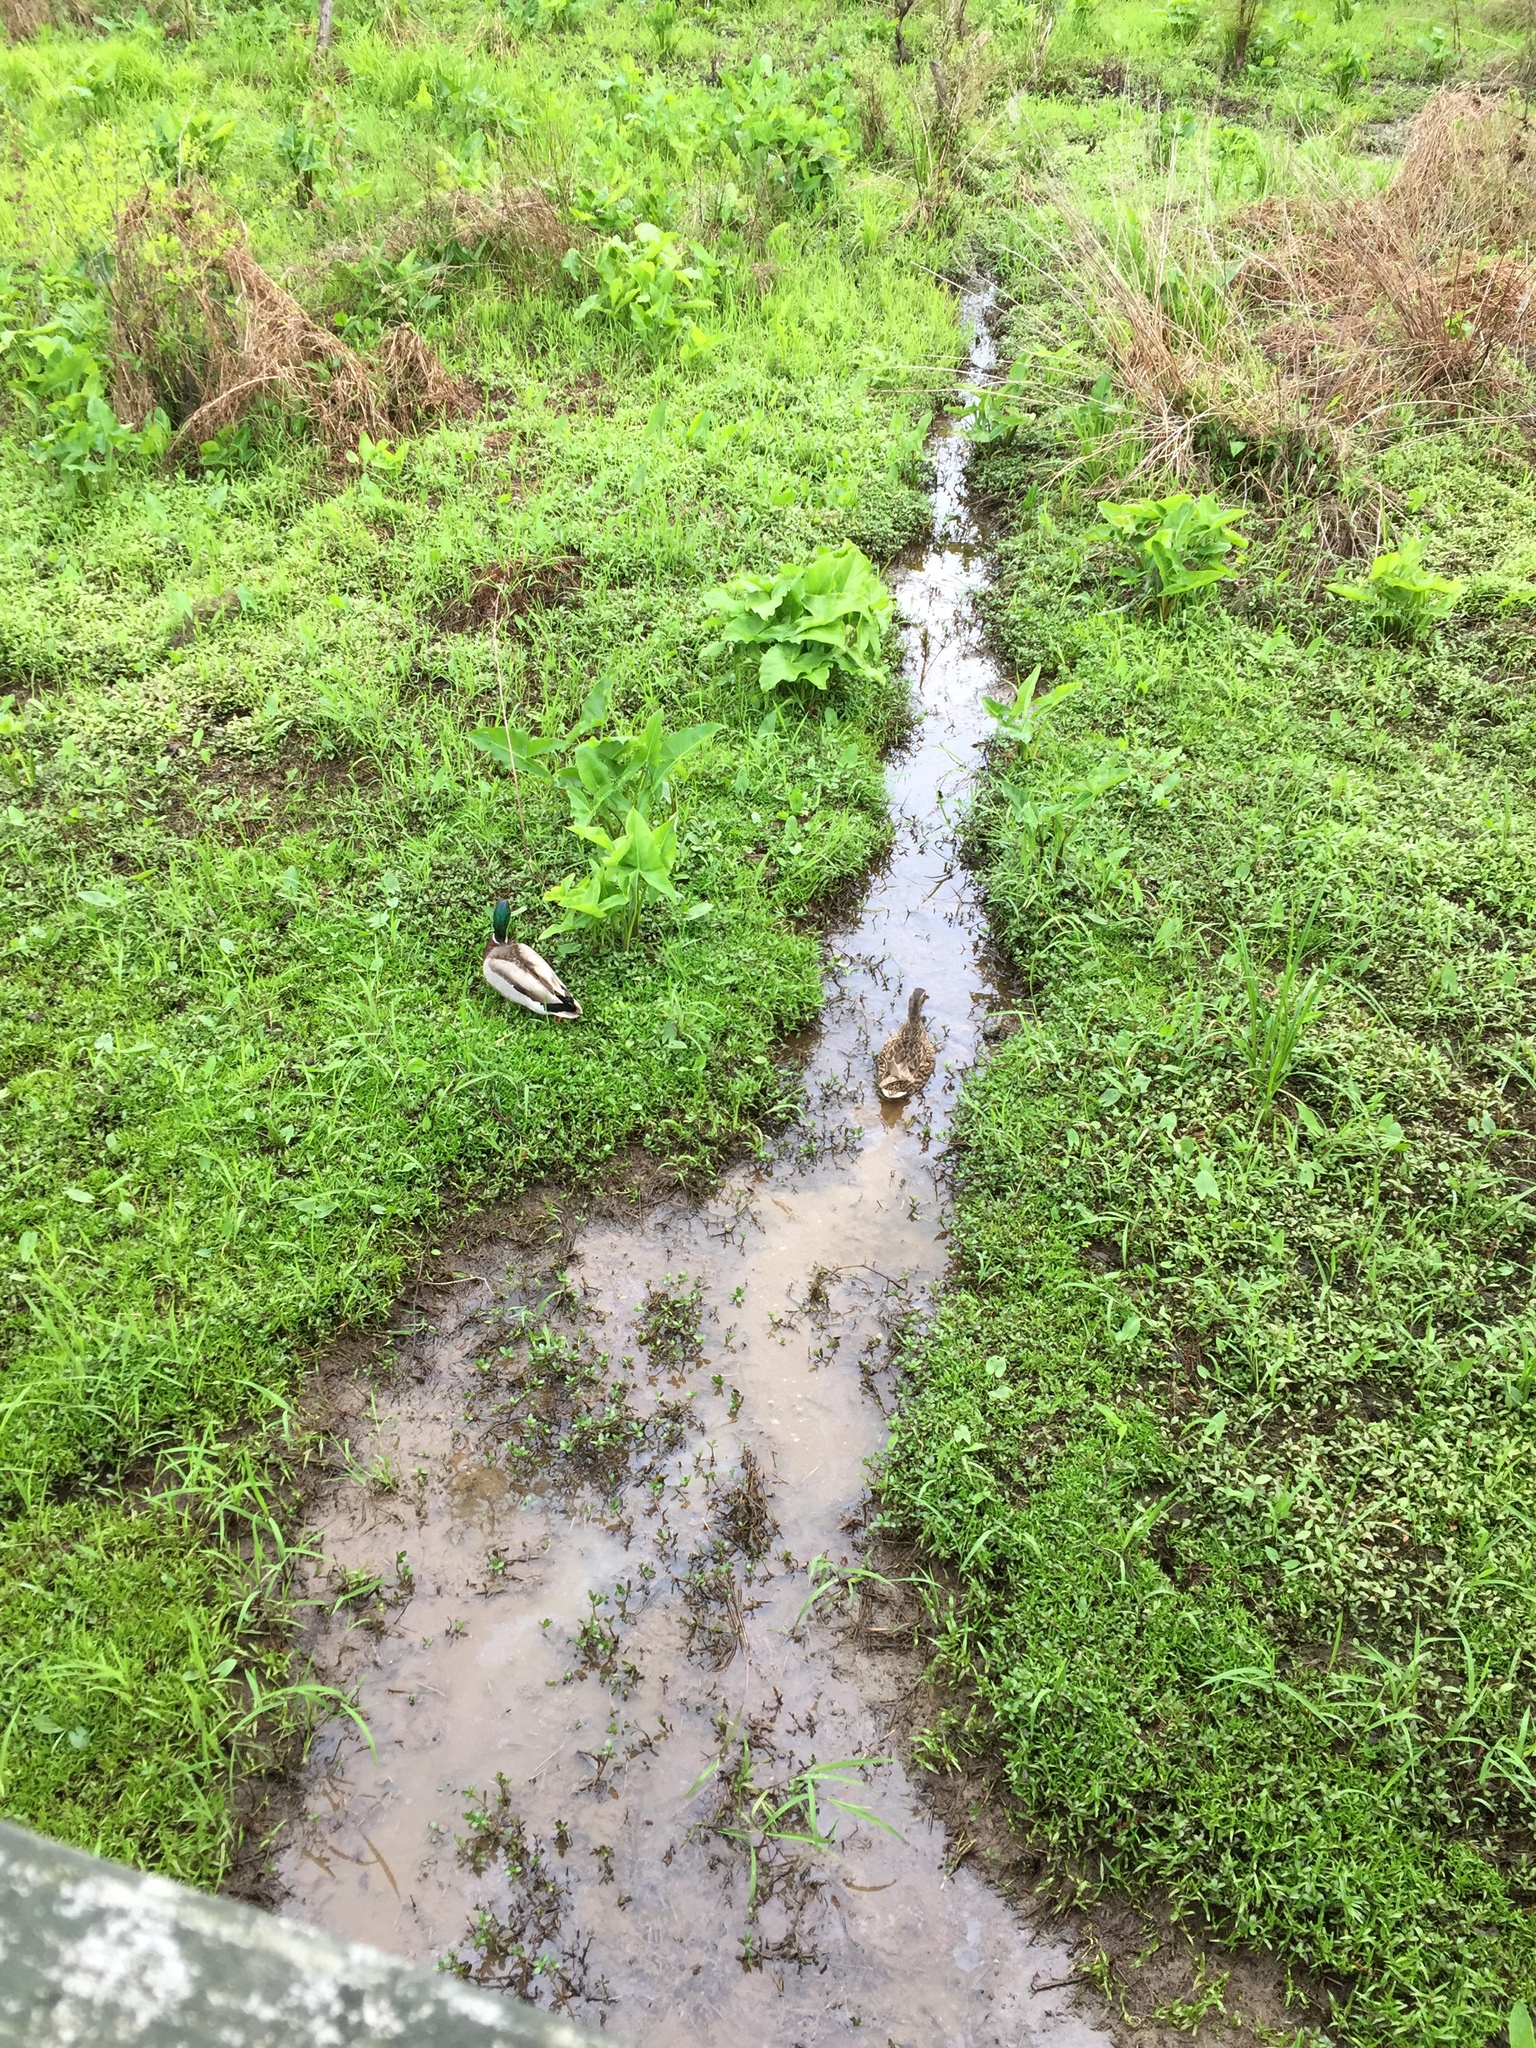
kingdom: Animalia
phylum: Chordata
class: Aves
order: Anseriformes
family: Anatidae
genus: Anas
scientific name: Anas platyrhynchos
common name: Mallard
